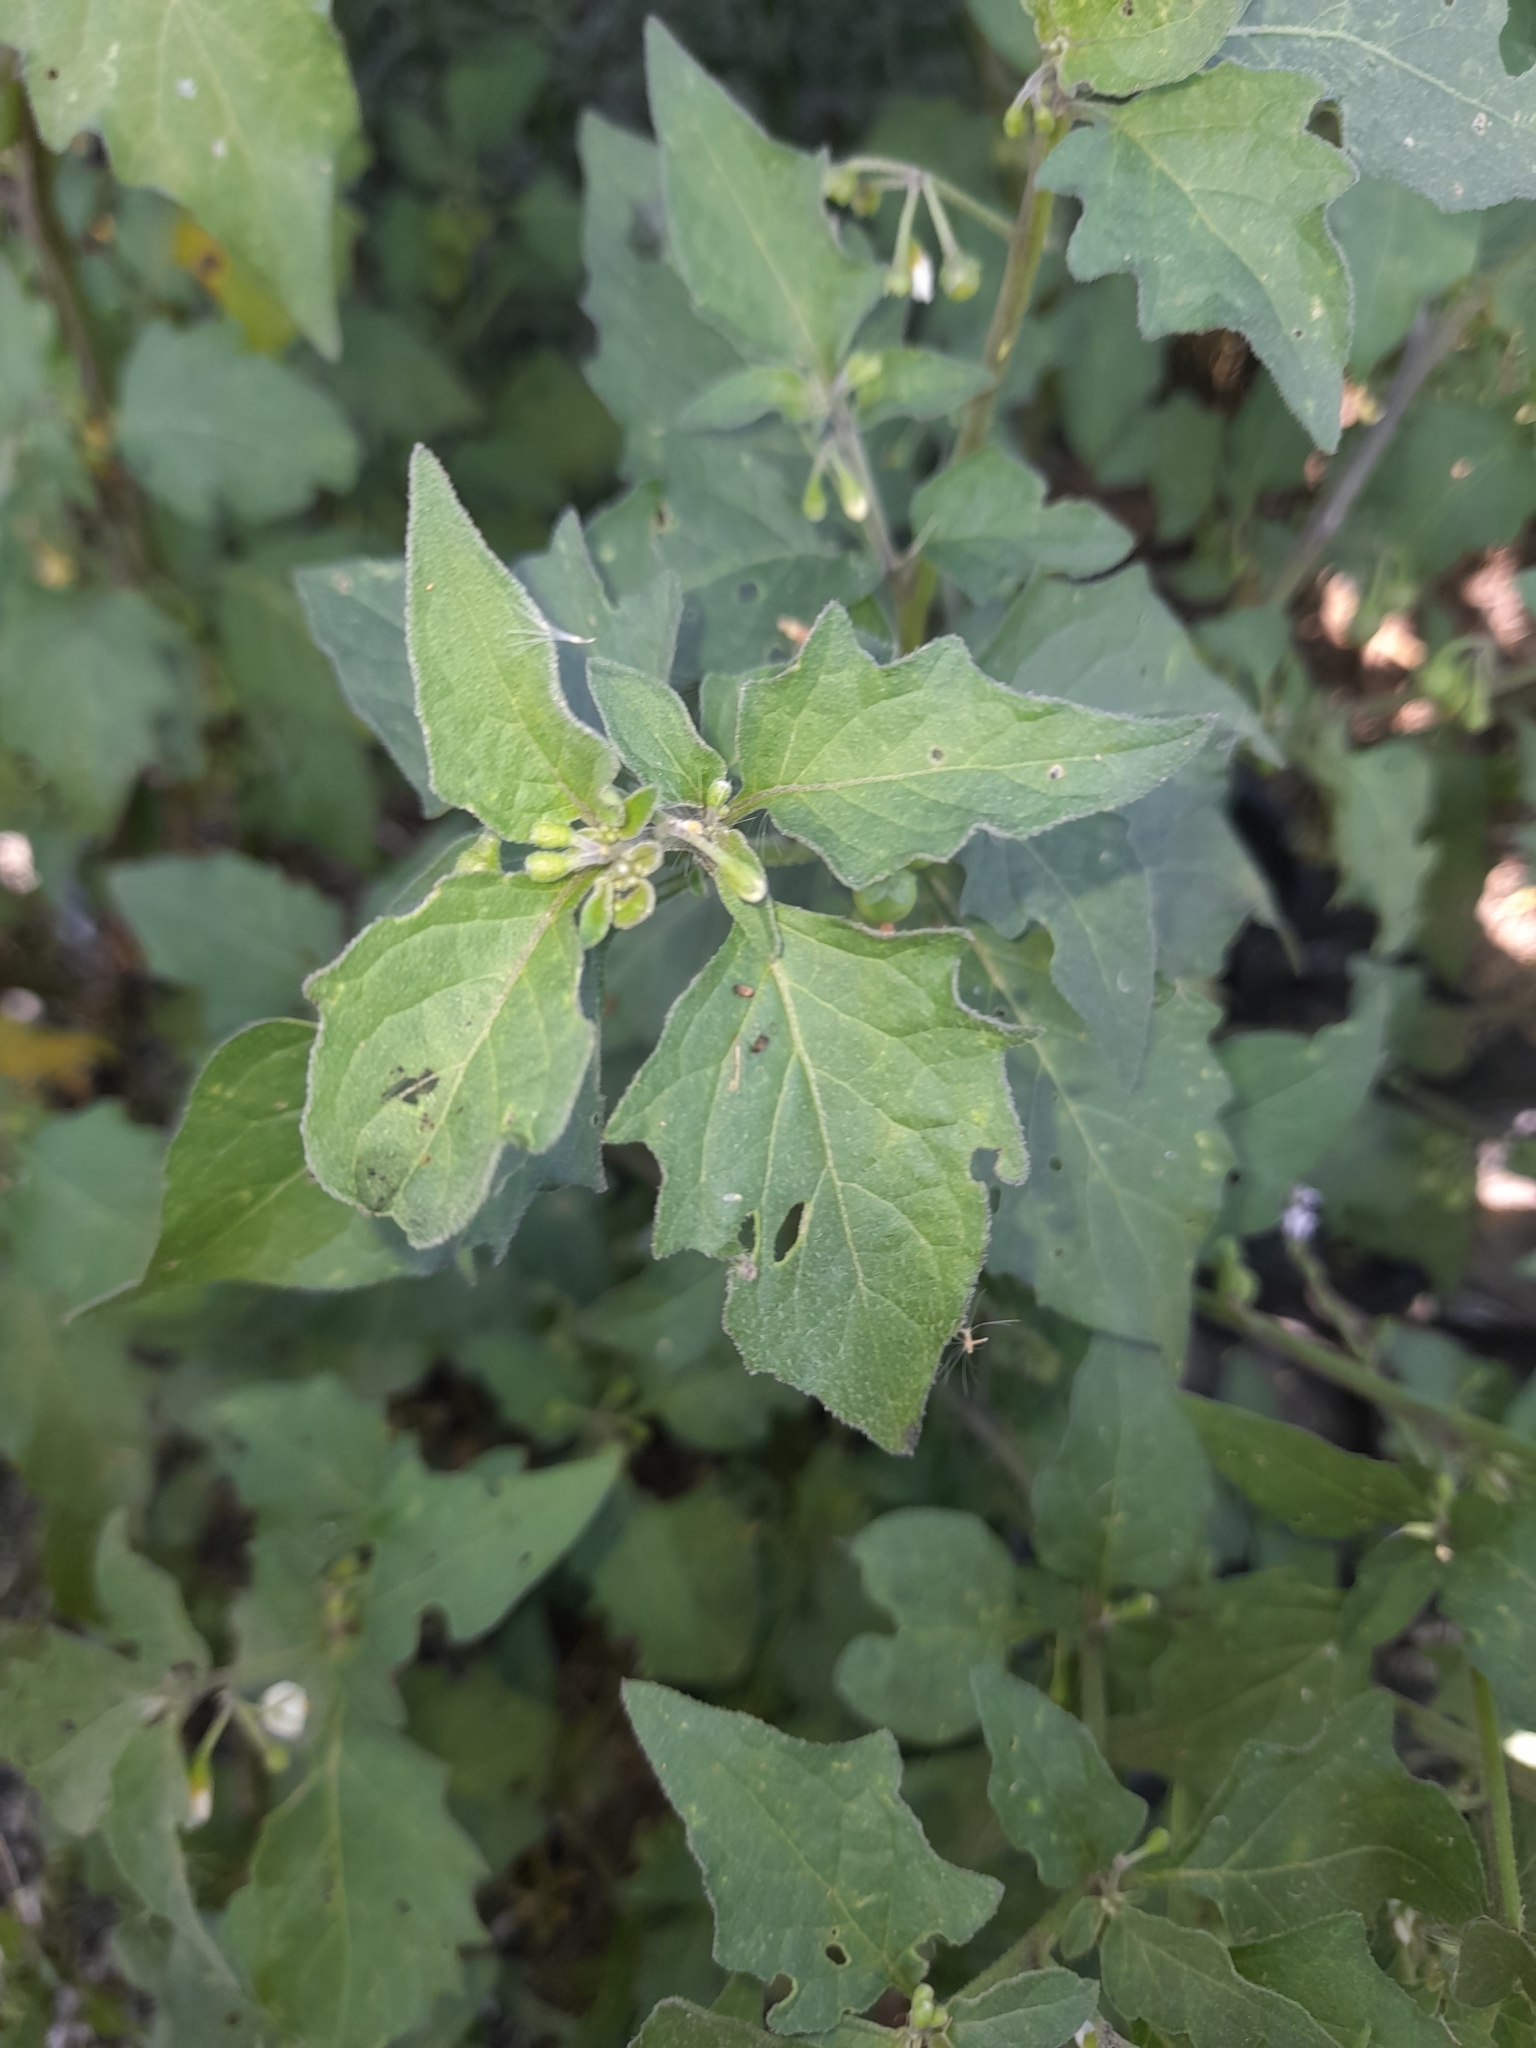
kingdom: Plantae
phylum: Tracheophyta
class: Magnoliopsida
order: Solanales
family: Solanaceae
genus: Solanum
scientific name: Solanum nigrum
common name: Black nightshade
